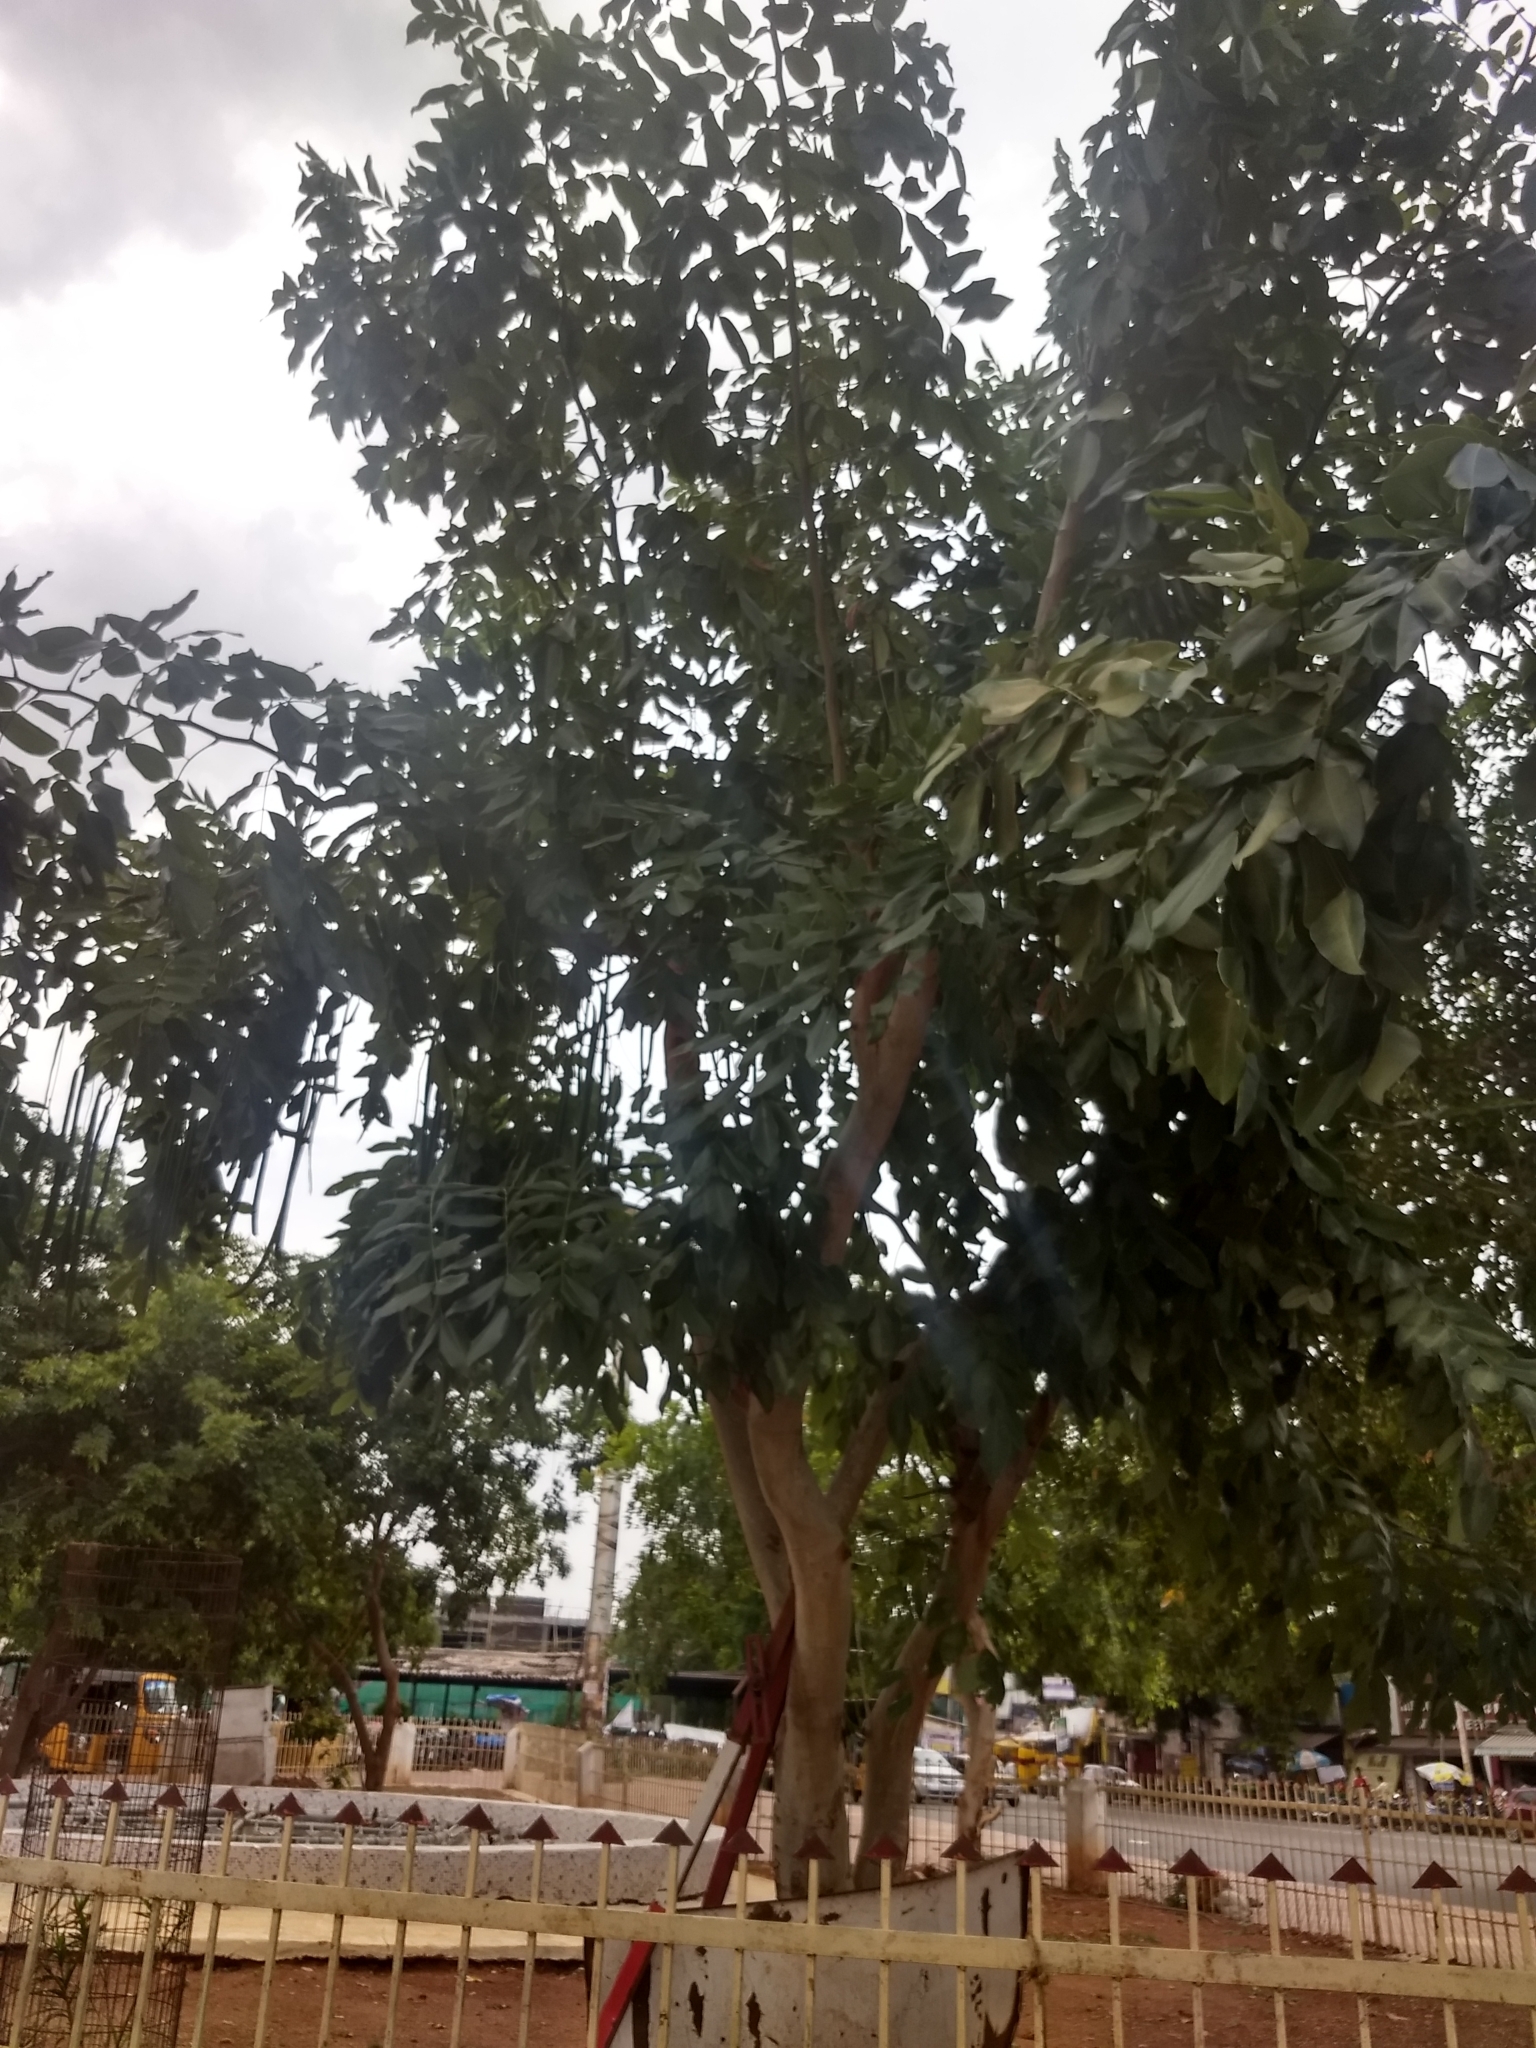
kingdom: Plantae
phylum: Tracheophyta
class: Magnoliopsida
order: Fabales
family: Fabaceae
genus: Cassia
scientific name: Cassia fistula
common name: Golden shower
